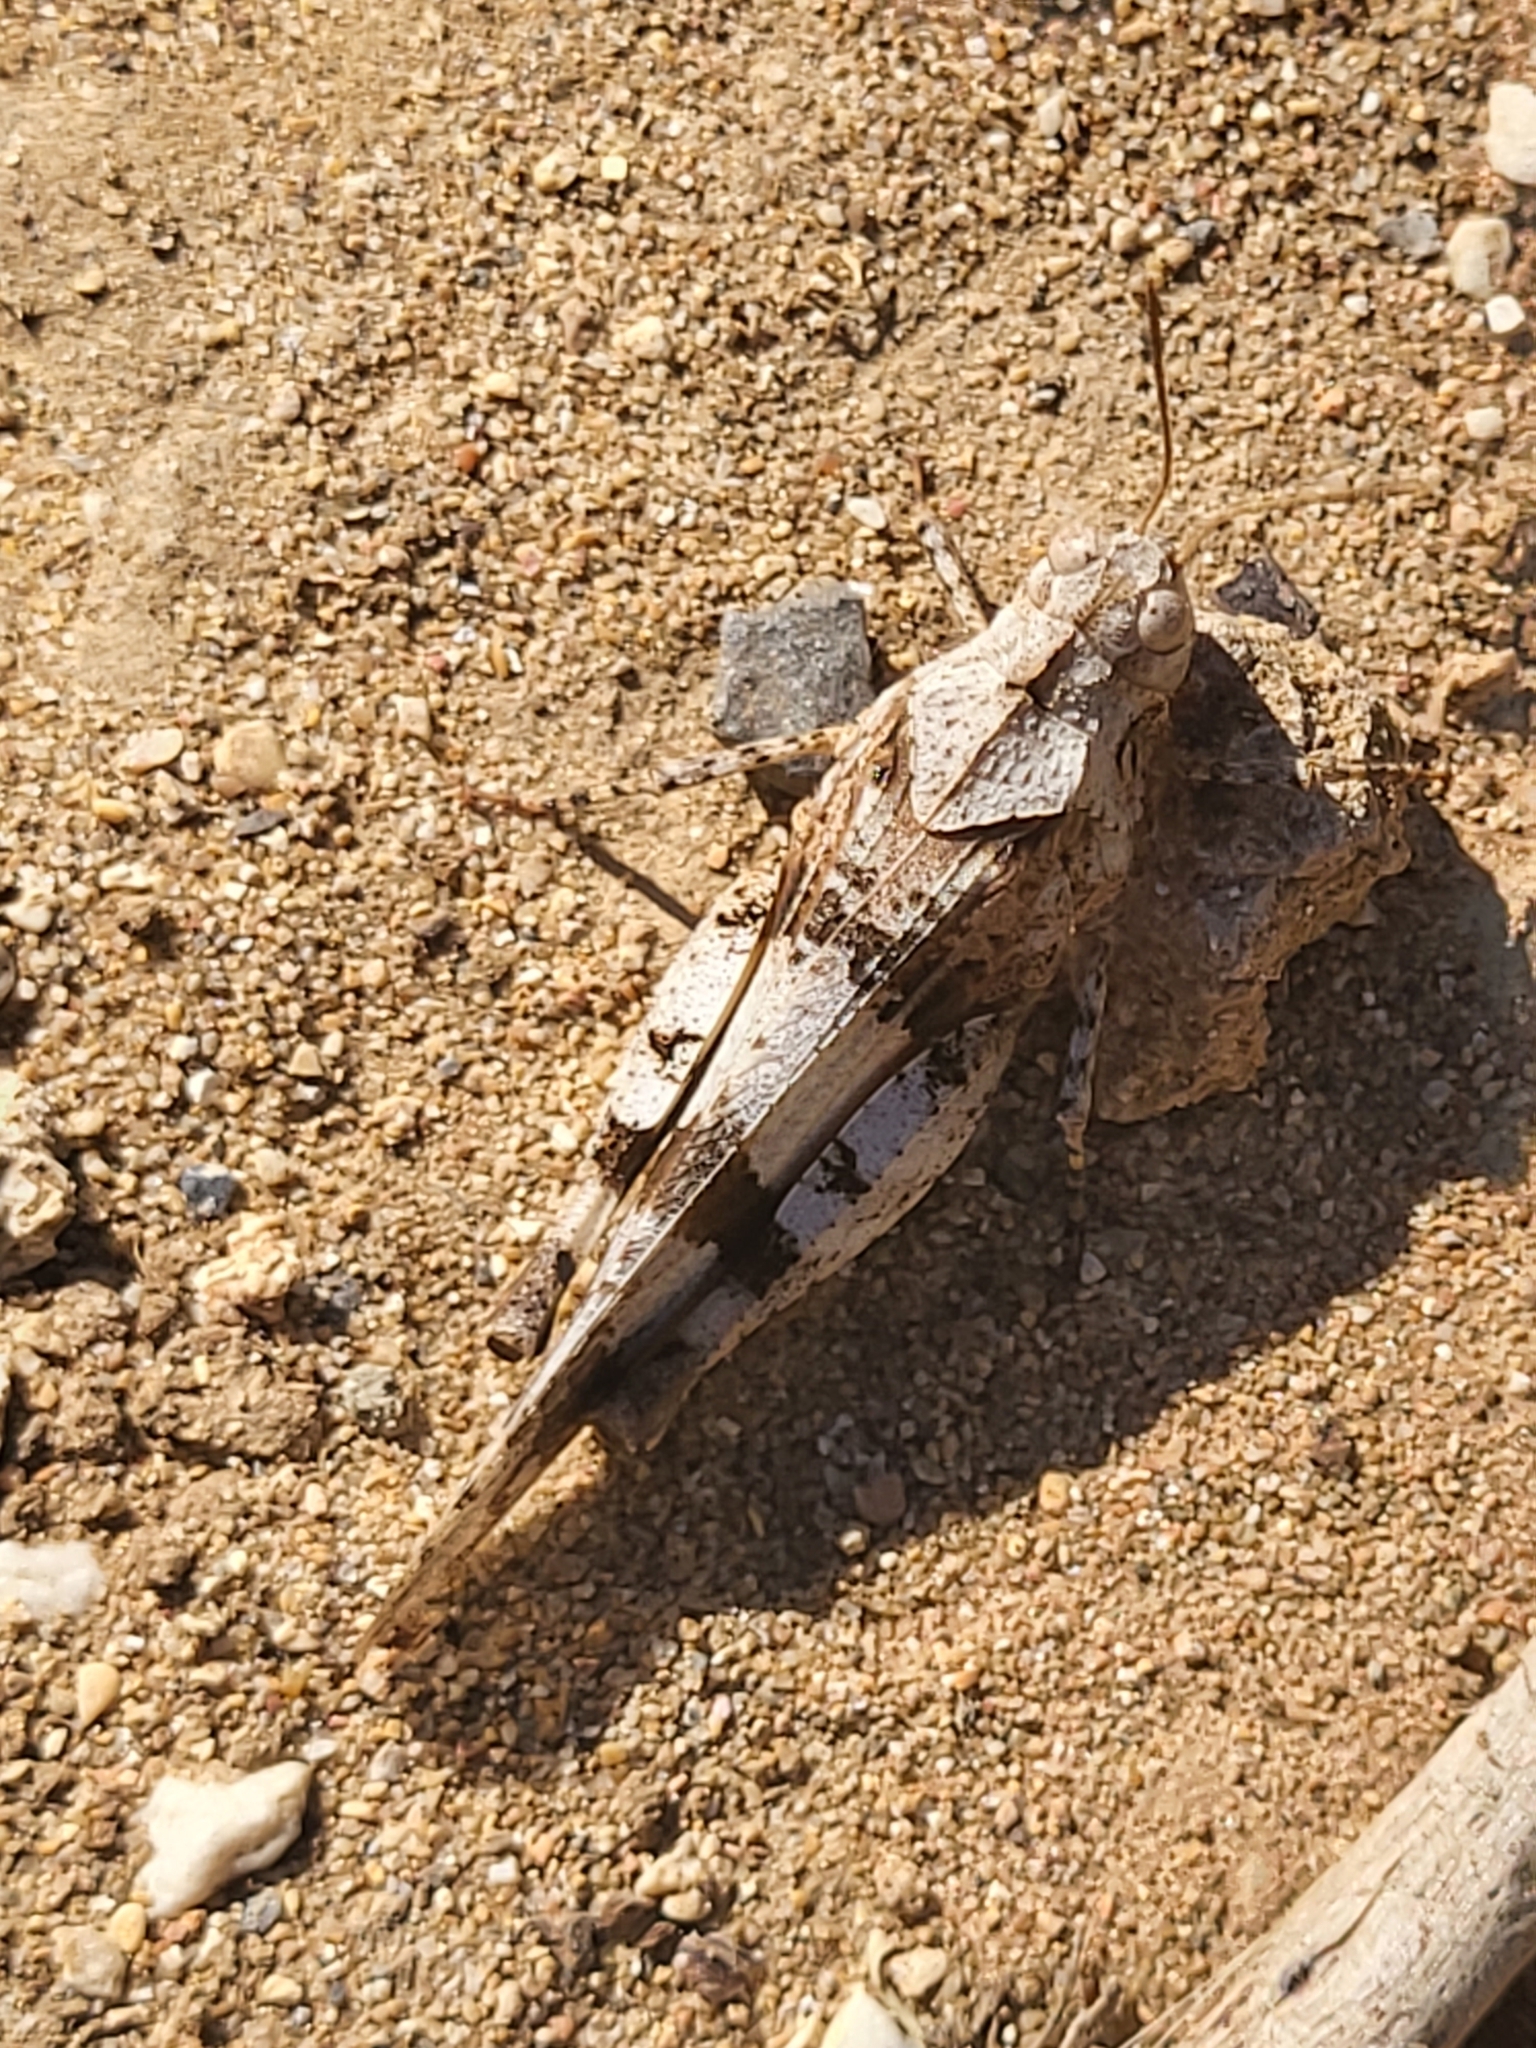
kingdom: Animalia
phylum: Arthropoda
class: Insecta
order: Orthoptera
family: Acrididae
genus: Oedipoda
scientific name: Oedipoda
